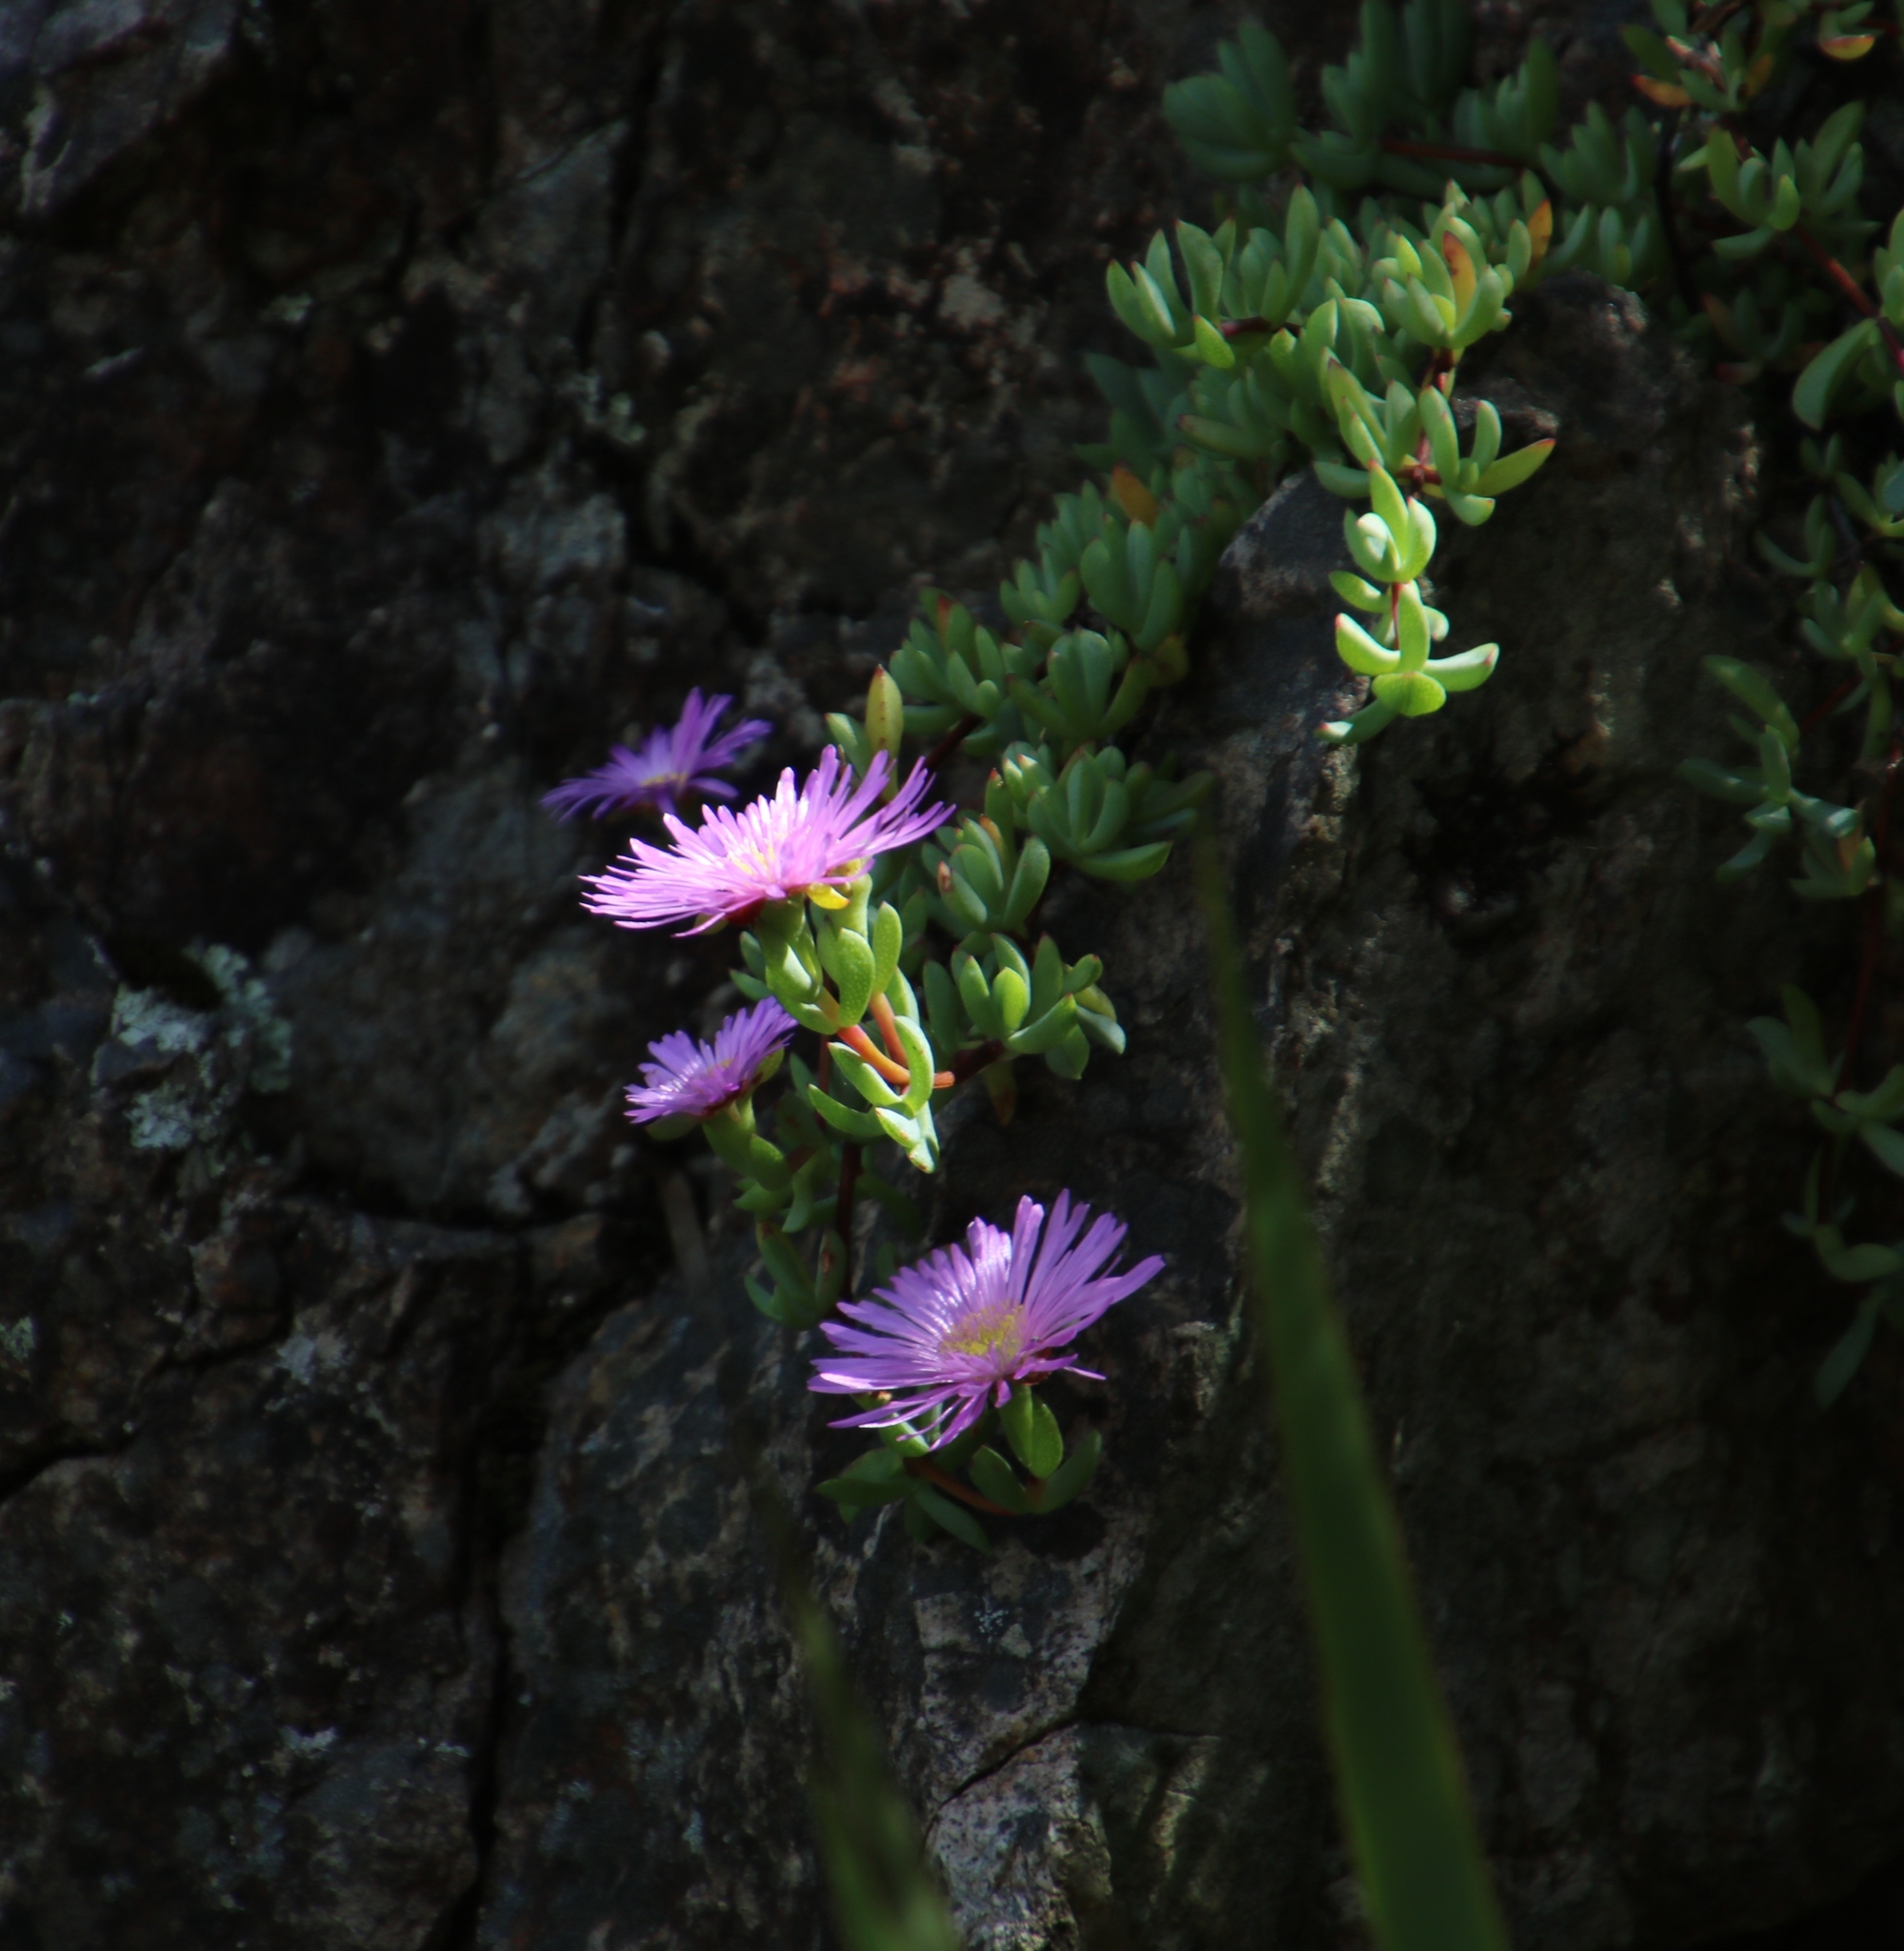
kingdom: Plantae
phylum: Tracheophyta
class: Magnoliopsida
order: Caryophyllales
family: Aizoaceae
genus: Oscularia
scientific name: Oscularia falciformis
